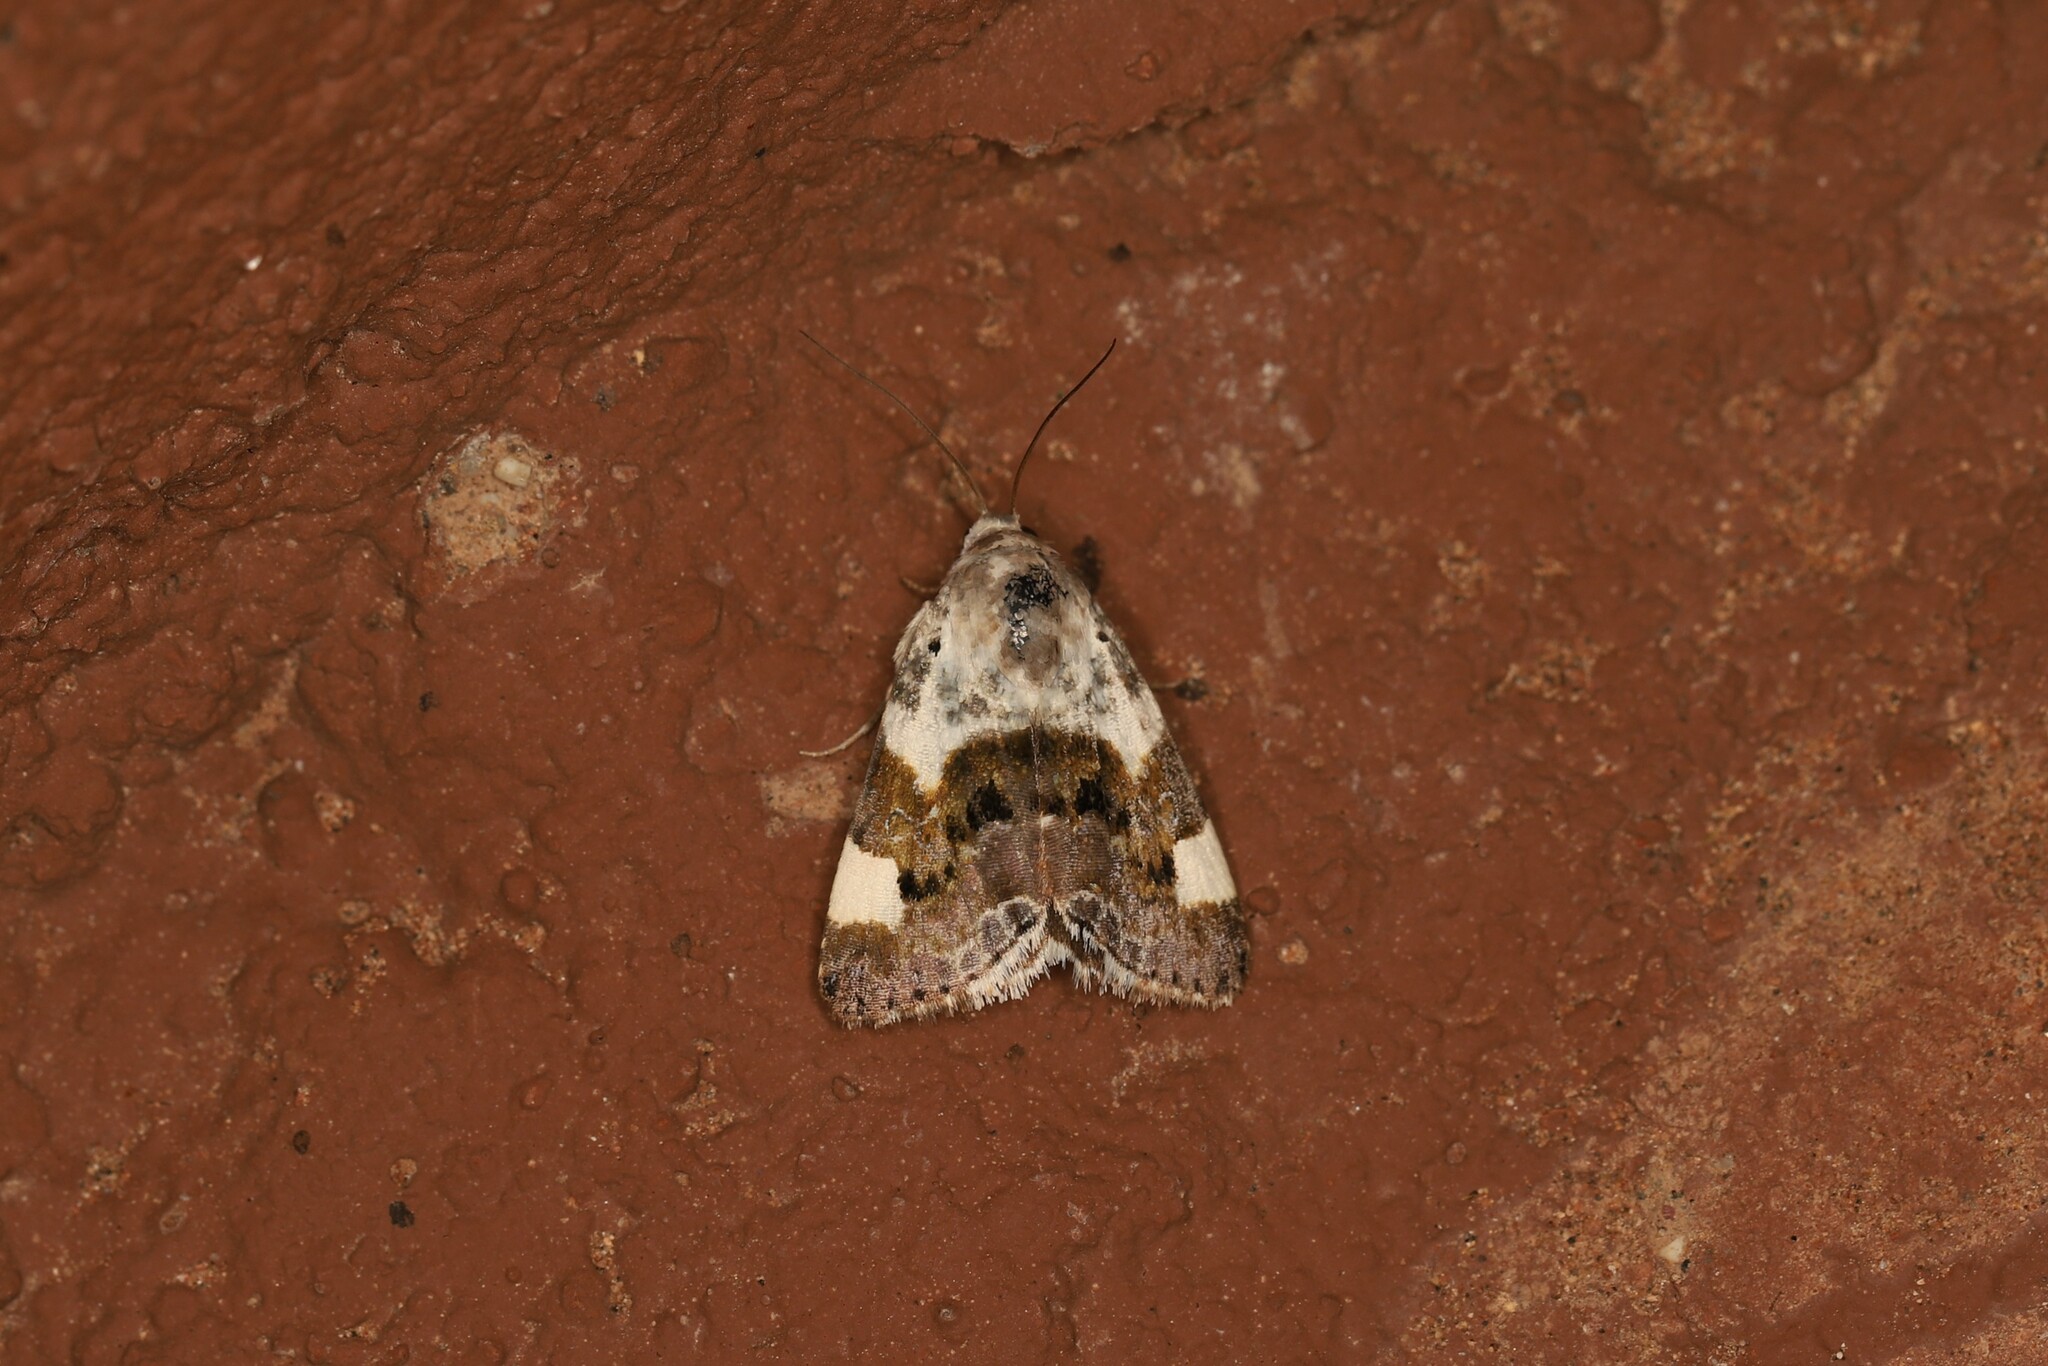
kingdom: Animalia
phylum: Arthropoda
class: Insecta
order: Lepidoptera
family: Noctuidae
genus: Acontia
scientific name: Acontia lucida
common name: Pale shoulder
